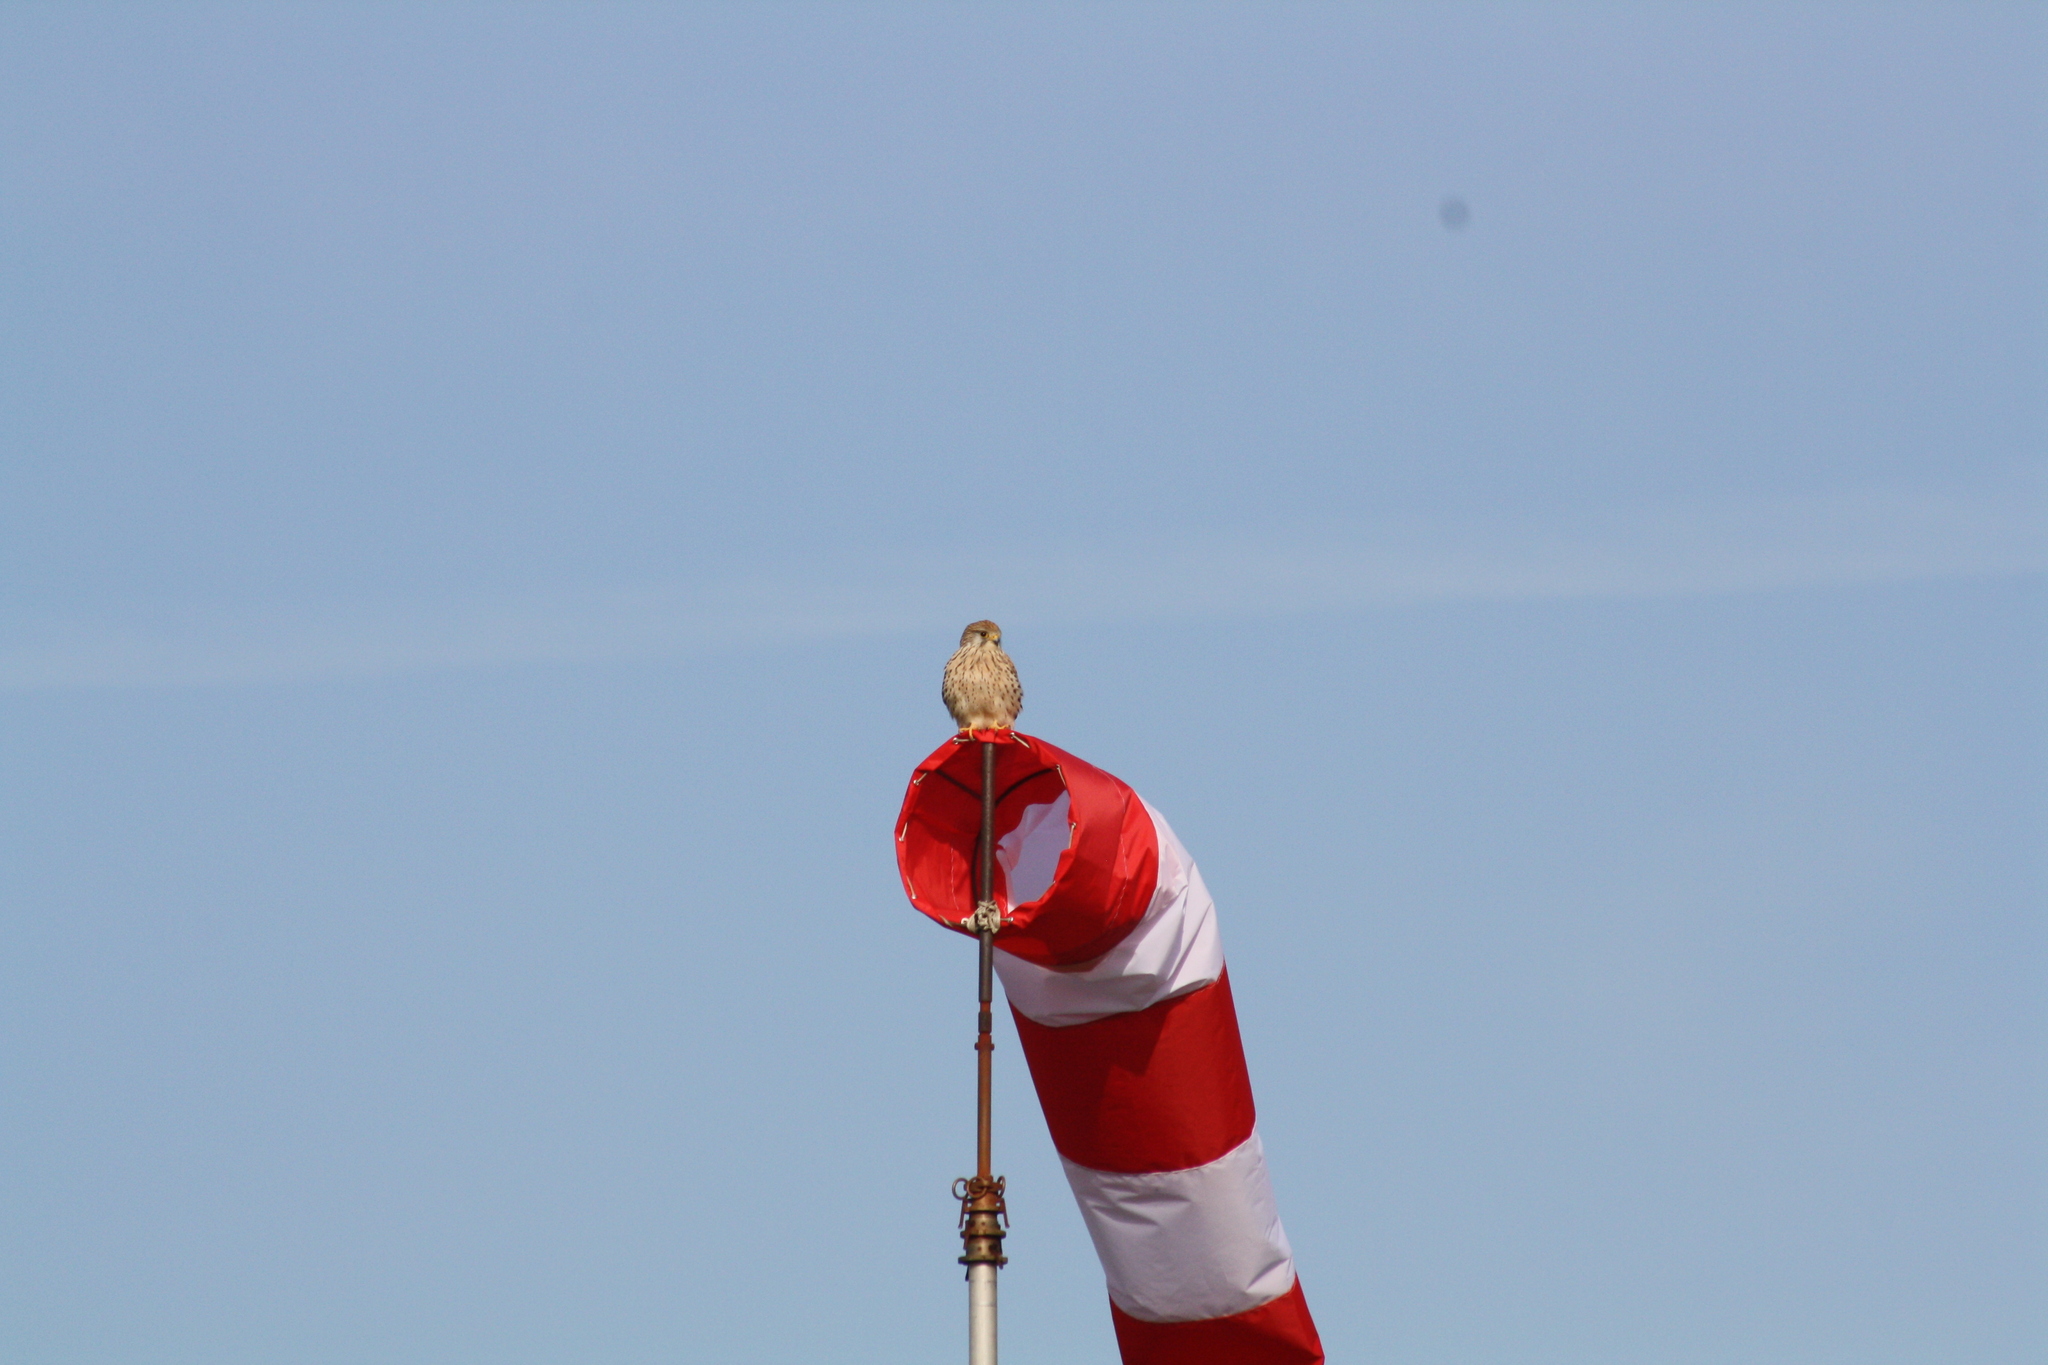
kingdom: Animalia
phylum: Chordata
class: Aves
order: Falconiformes
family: Falconidae
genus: Falco
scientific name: Falco tinnunculus
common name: Common kestrel
